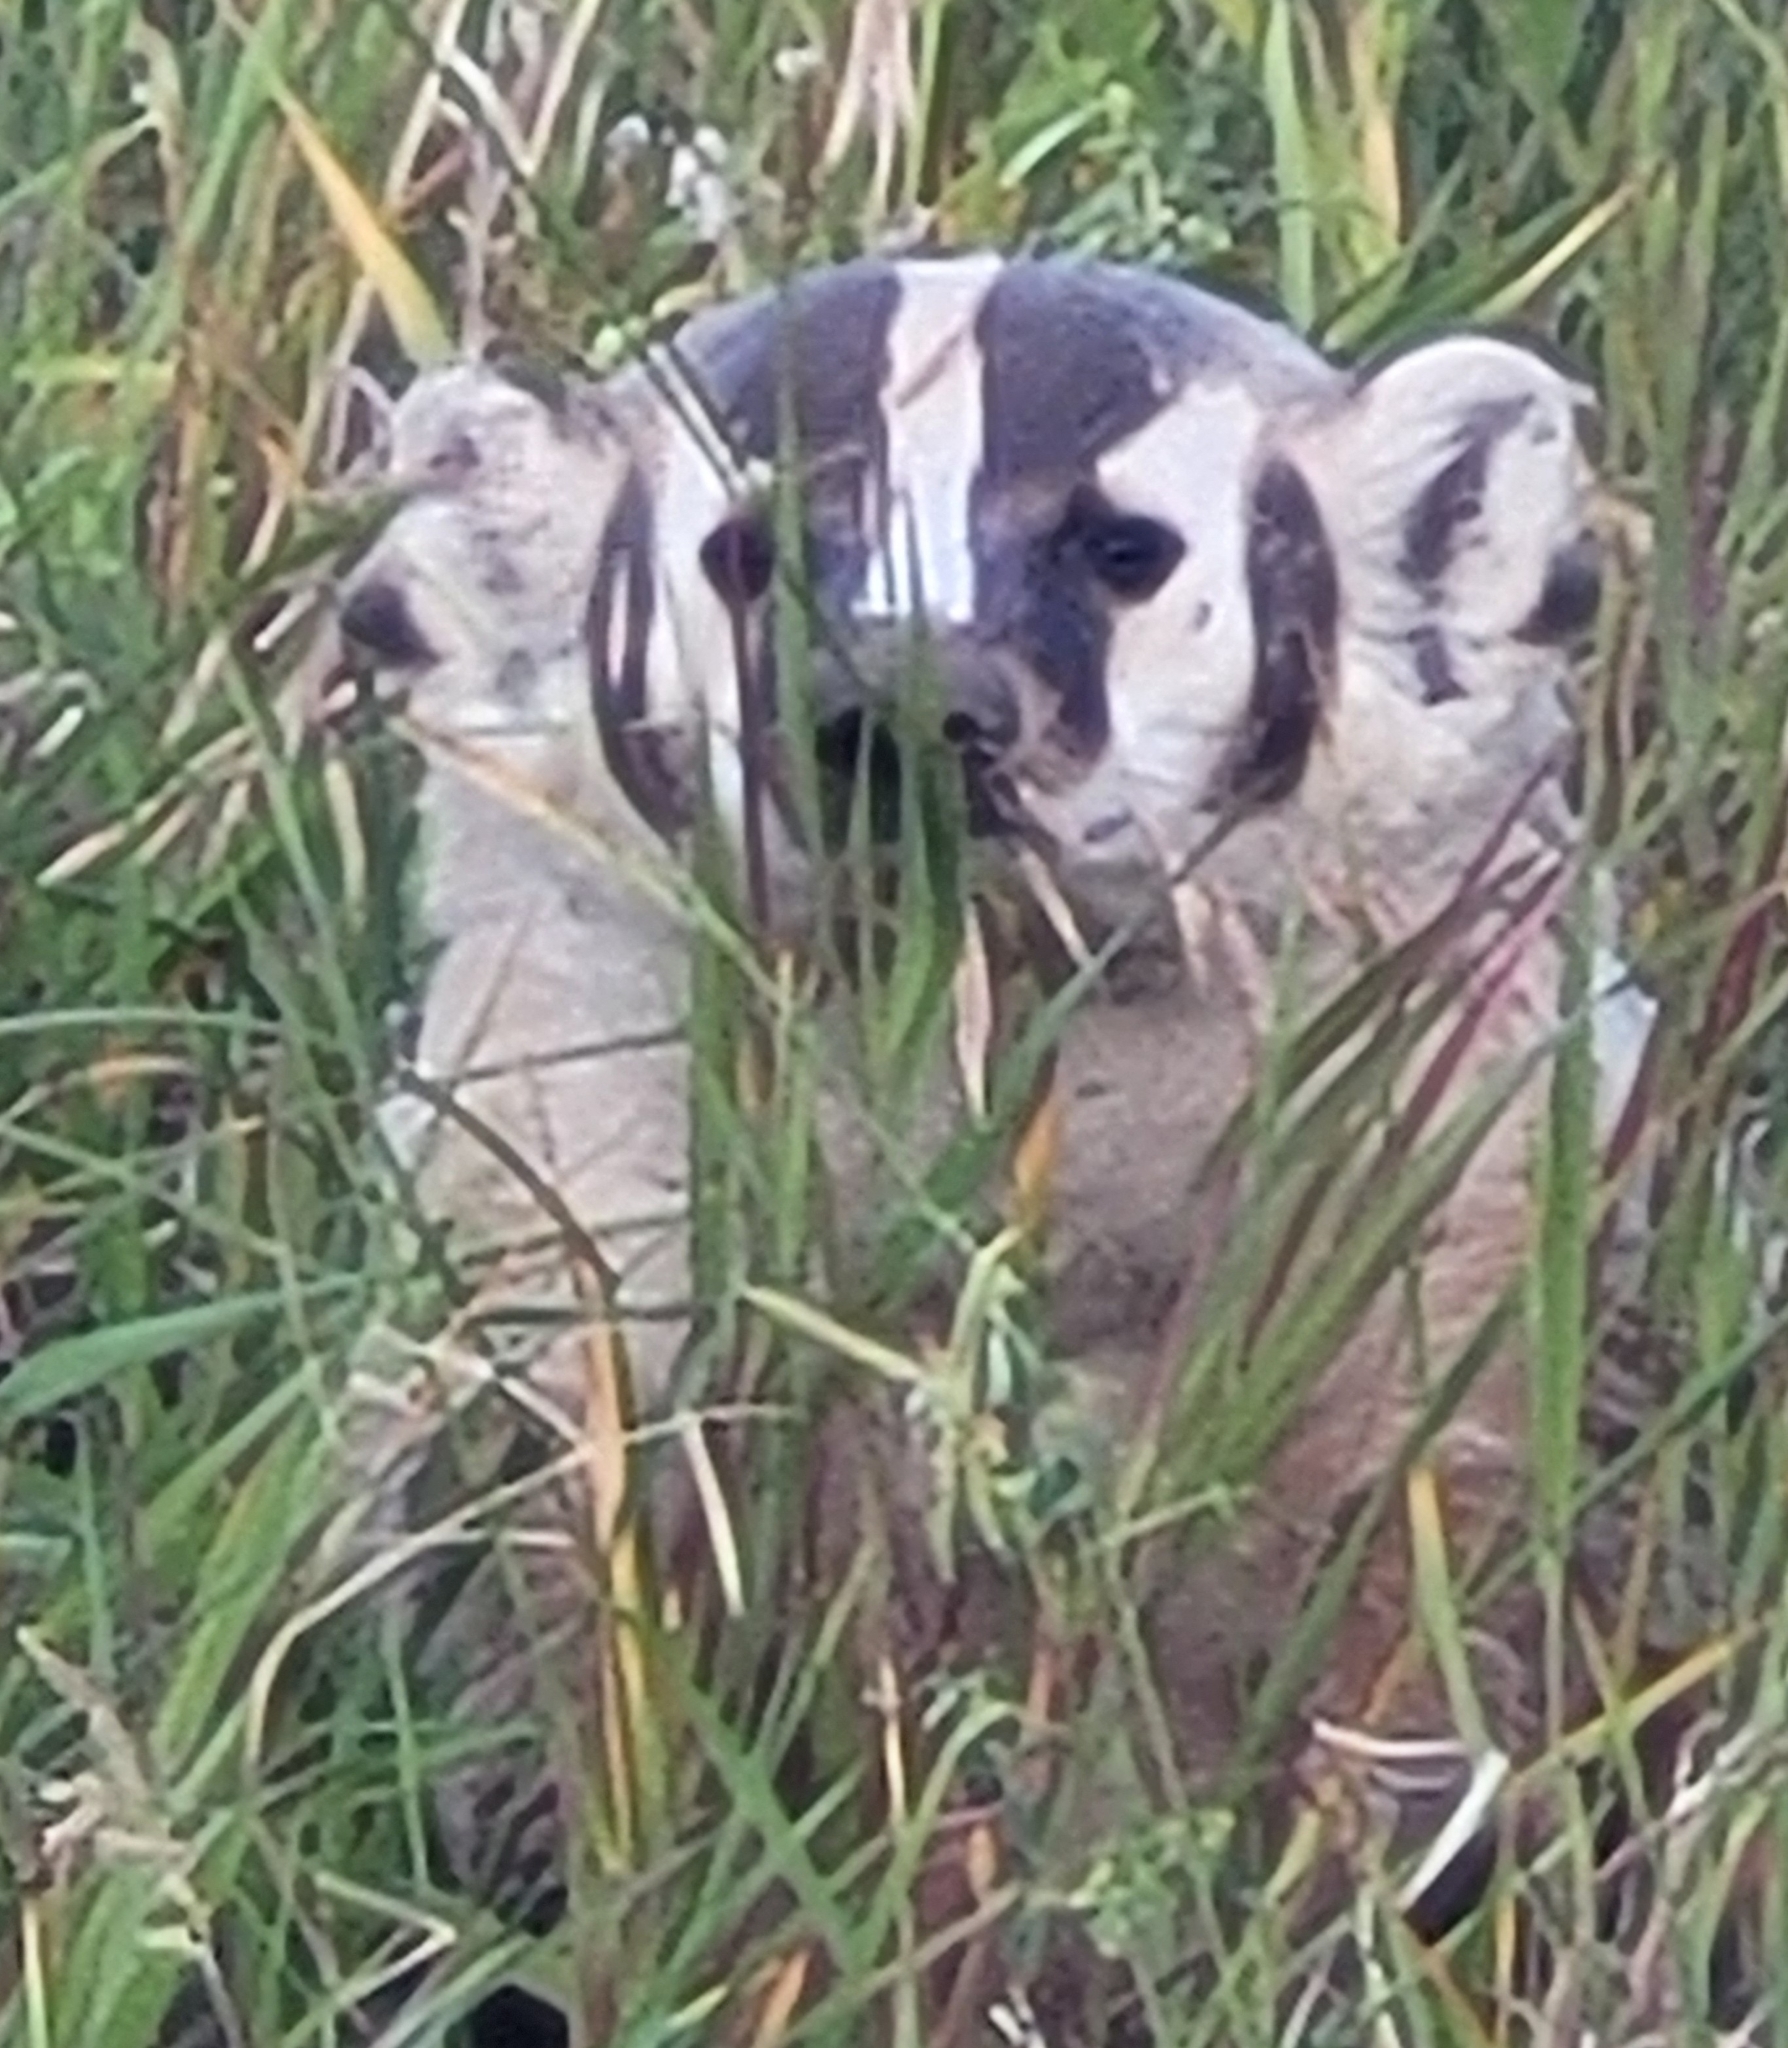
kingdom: Animalia
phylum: Chordata
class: Mammalia
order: Carnivora
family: Mustelidae
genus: Taxidea
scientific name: Taxidea taxus
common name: American badger
